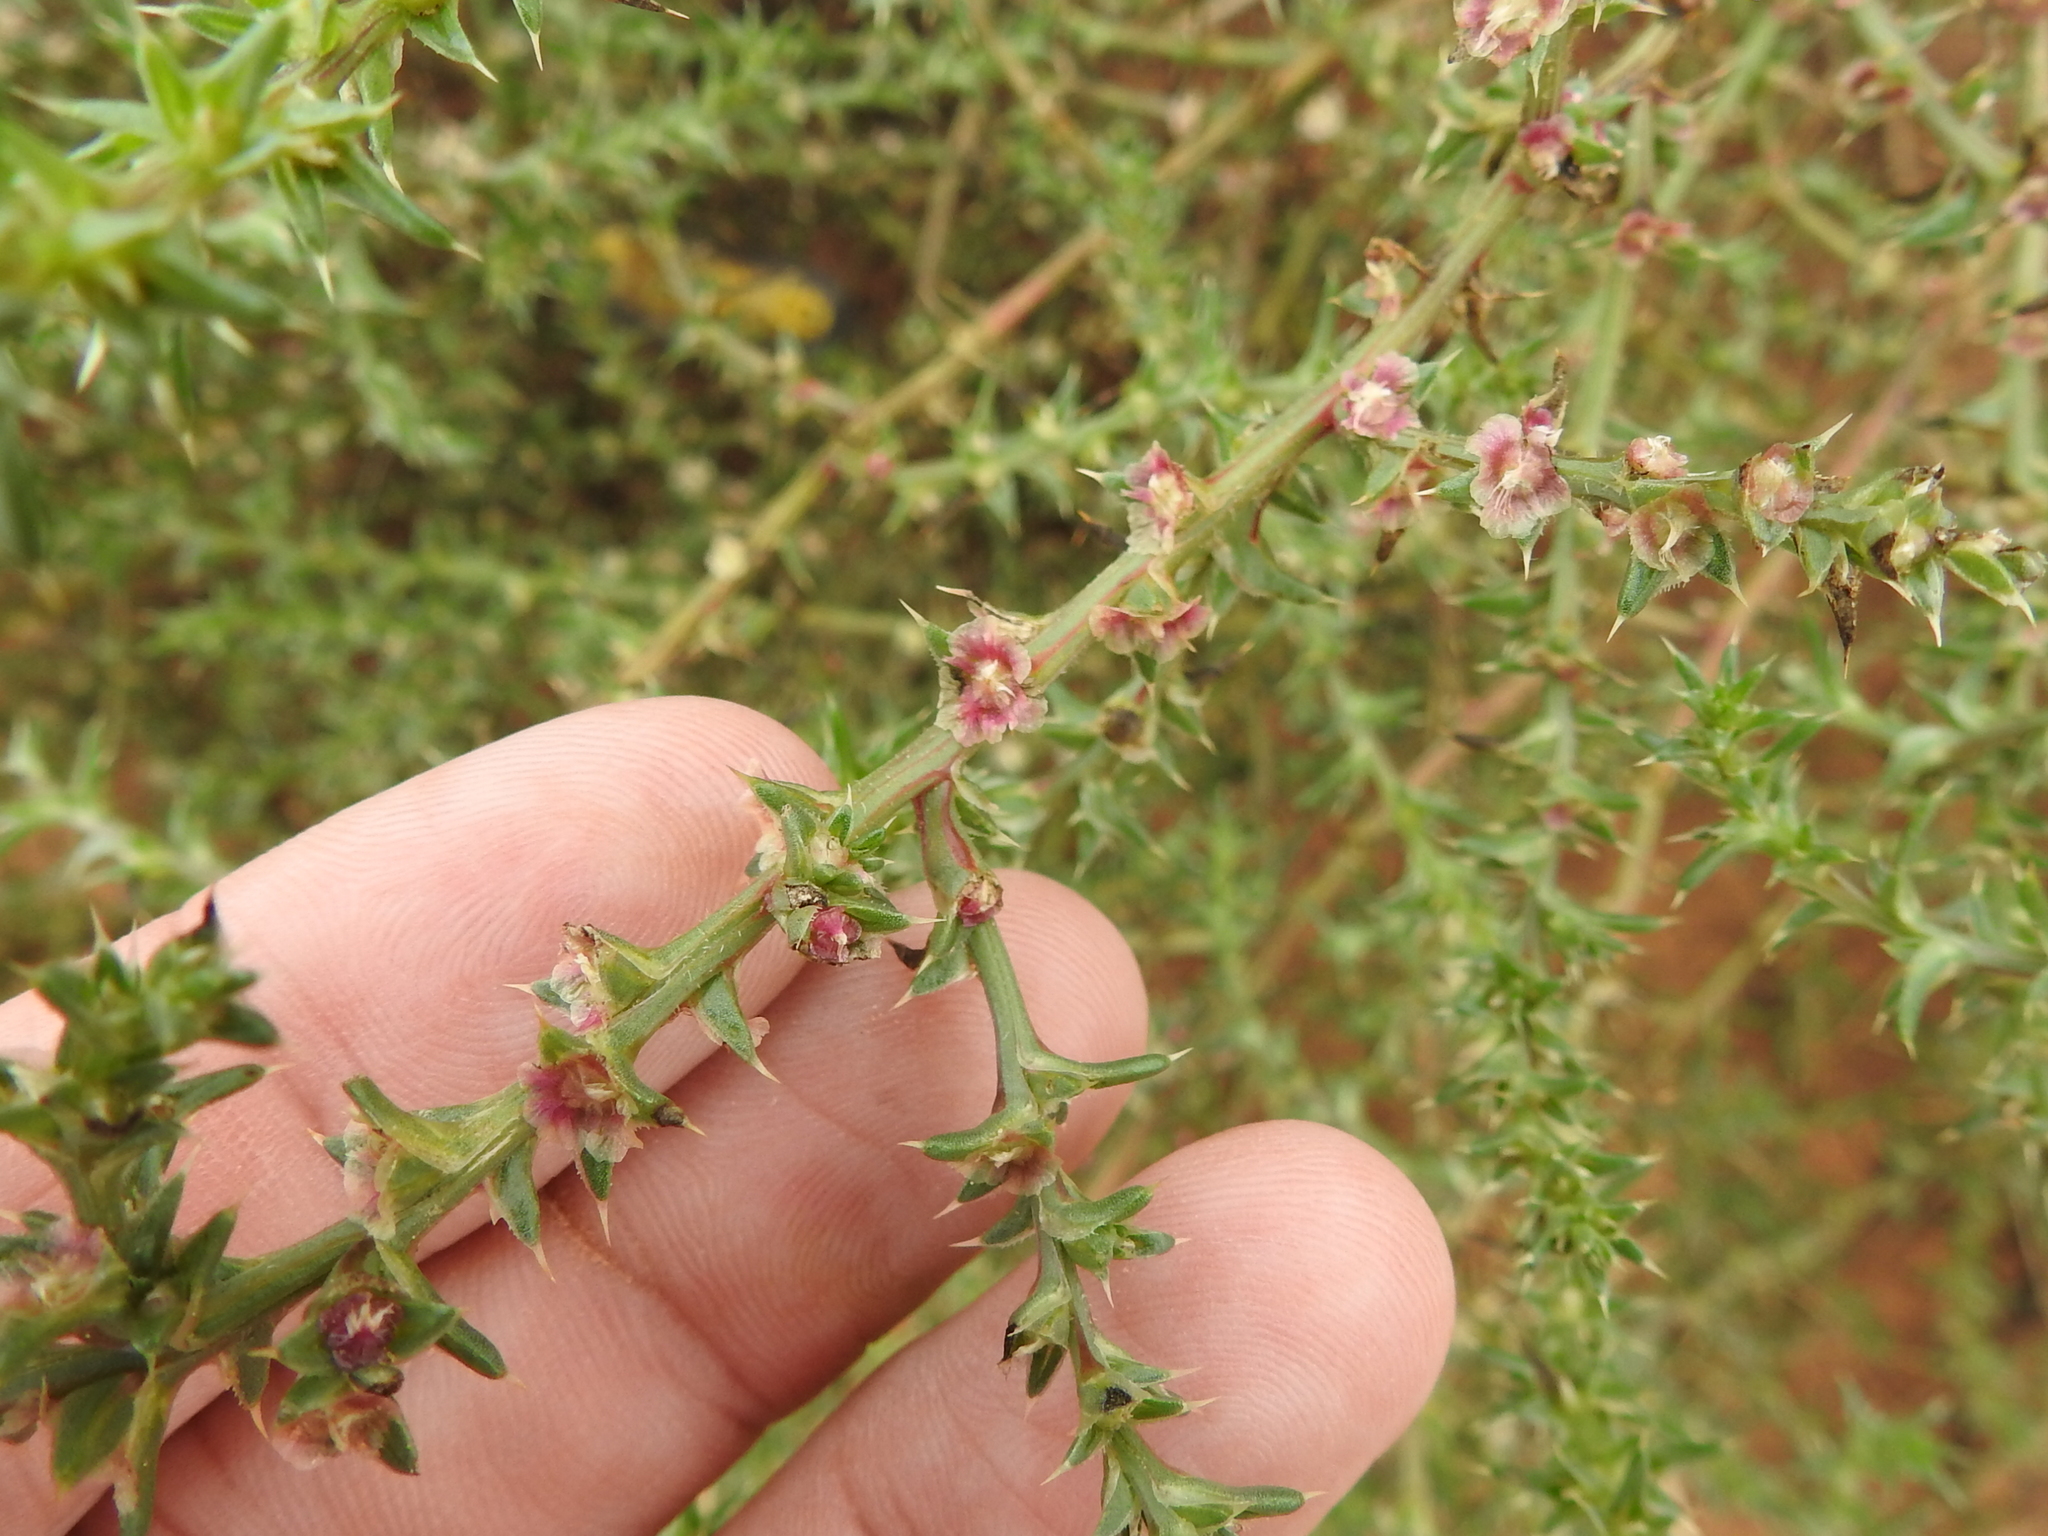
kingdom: Plantae
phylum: Tracheophyta
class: Magnoliopsida
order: Caryophyllales
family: Amaranthaceae
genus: Salsola
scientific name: Salsola tragus
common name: Prickly russian thistle
